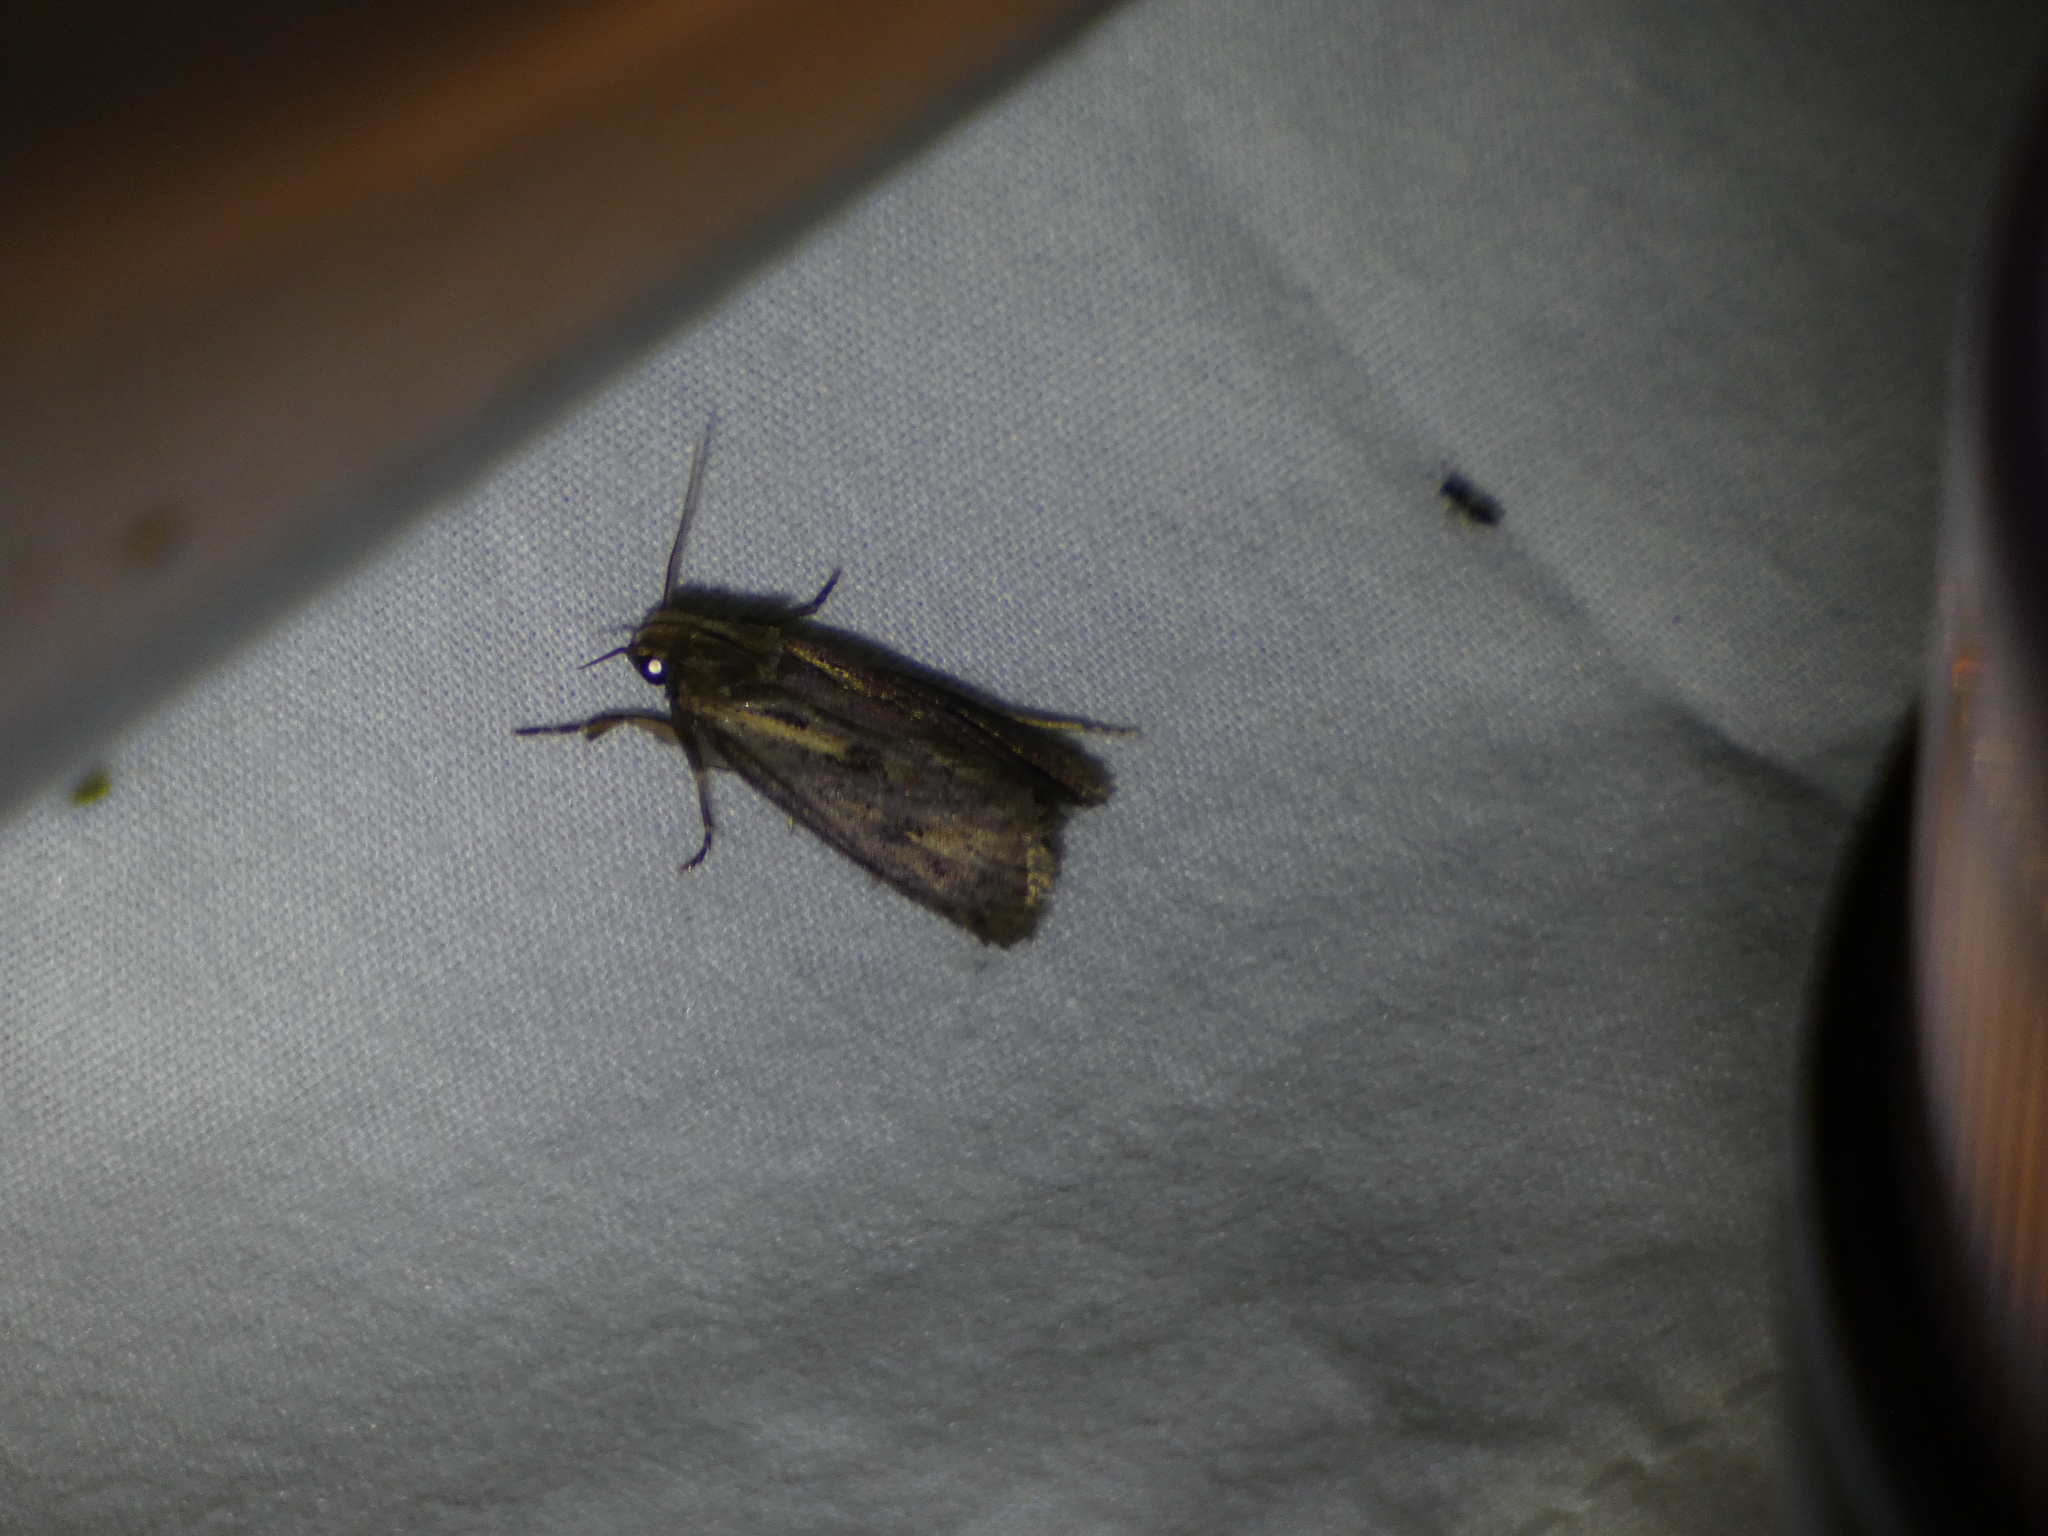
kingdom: Animalia
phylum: Arthropoda
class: Insecta
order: Lepidoptera
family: Tineidae
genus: Acrolophus
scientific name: Acrolophus popeanella
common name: Clemens' grass tubeworm moth
